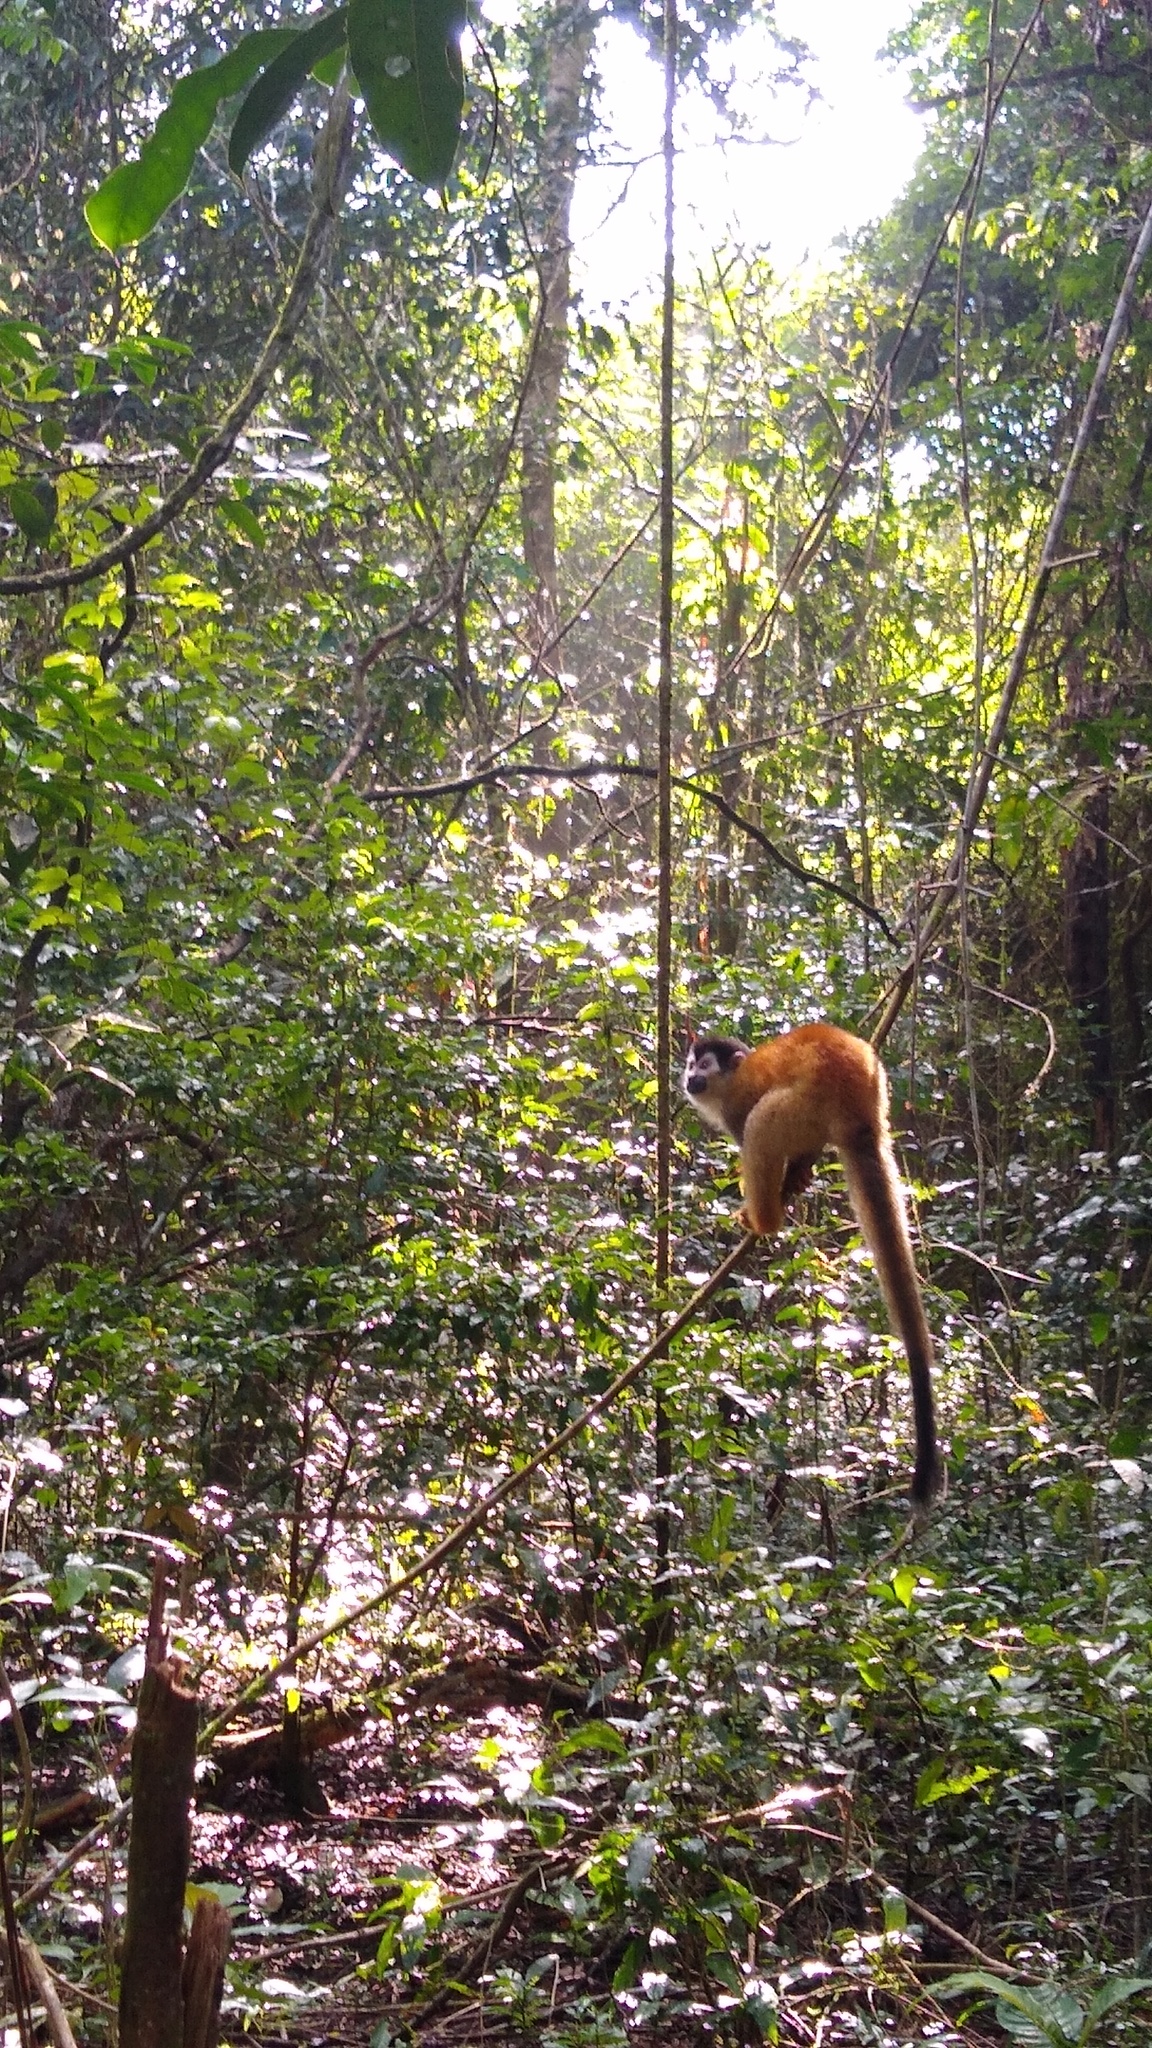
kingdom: Animalia
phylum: Chordata
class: Mammalia
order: Primates
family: Cebidae
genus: Saimiri
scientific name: Saimiri oerstedii
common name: Central american squirrel monkey
